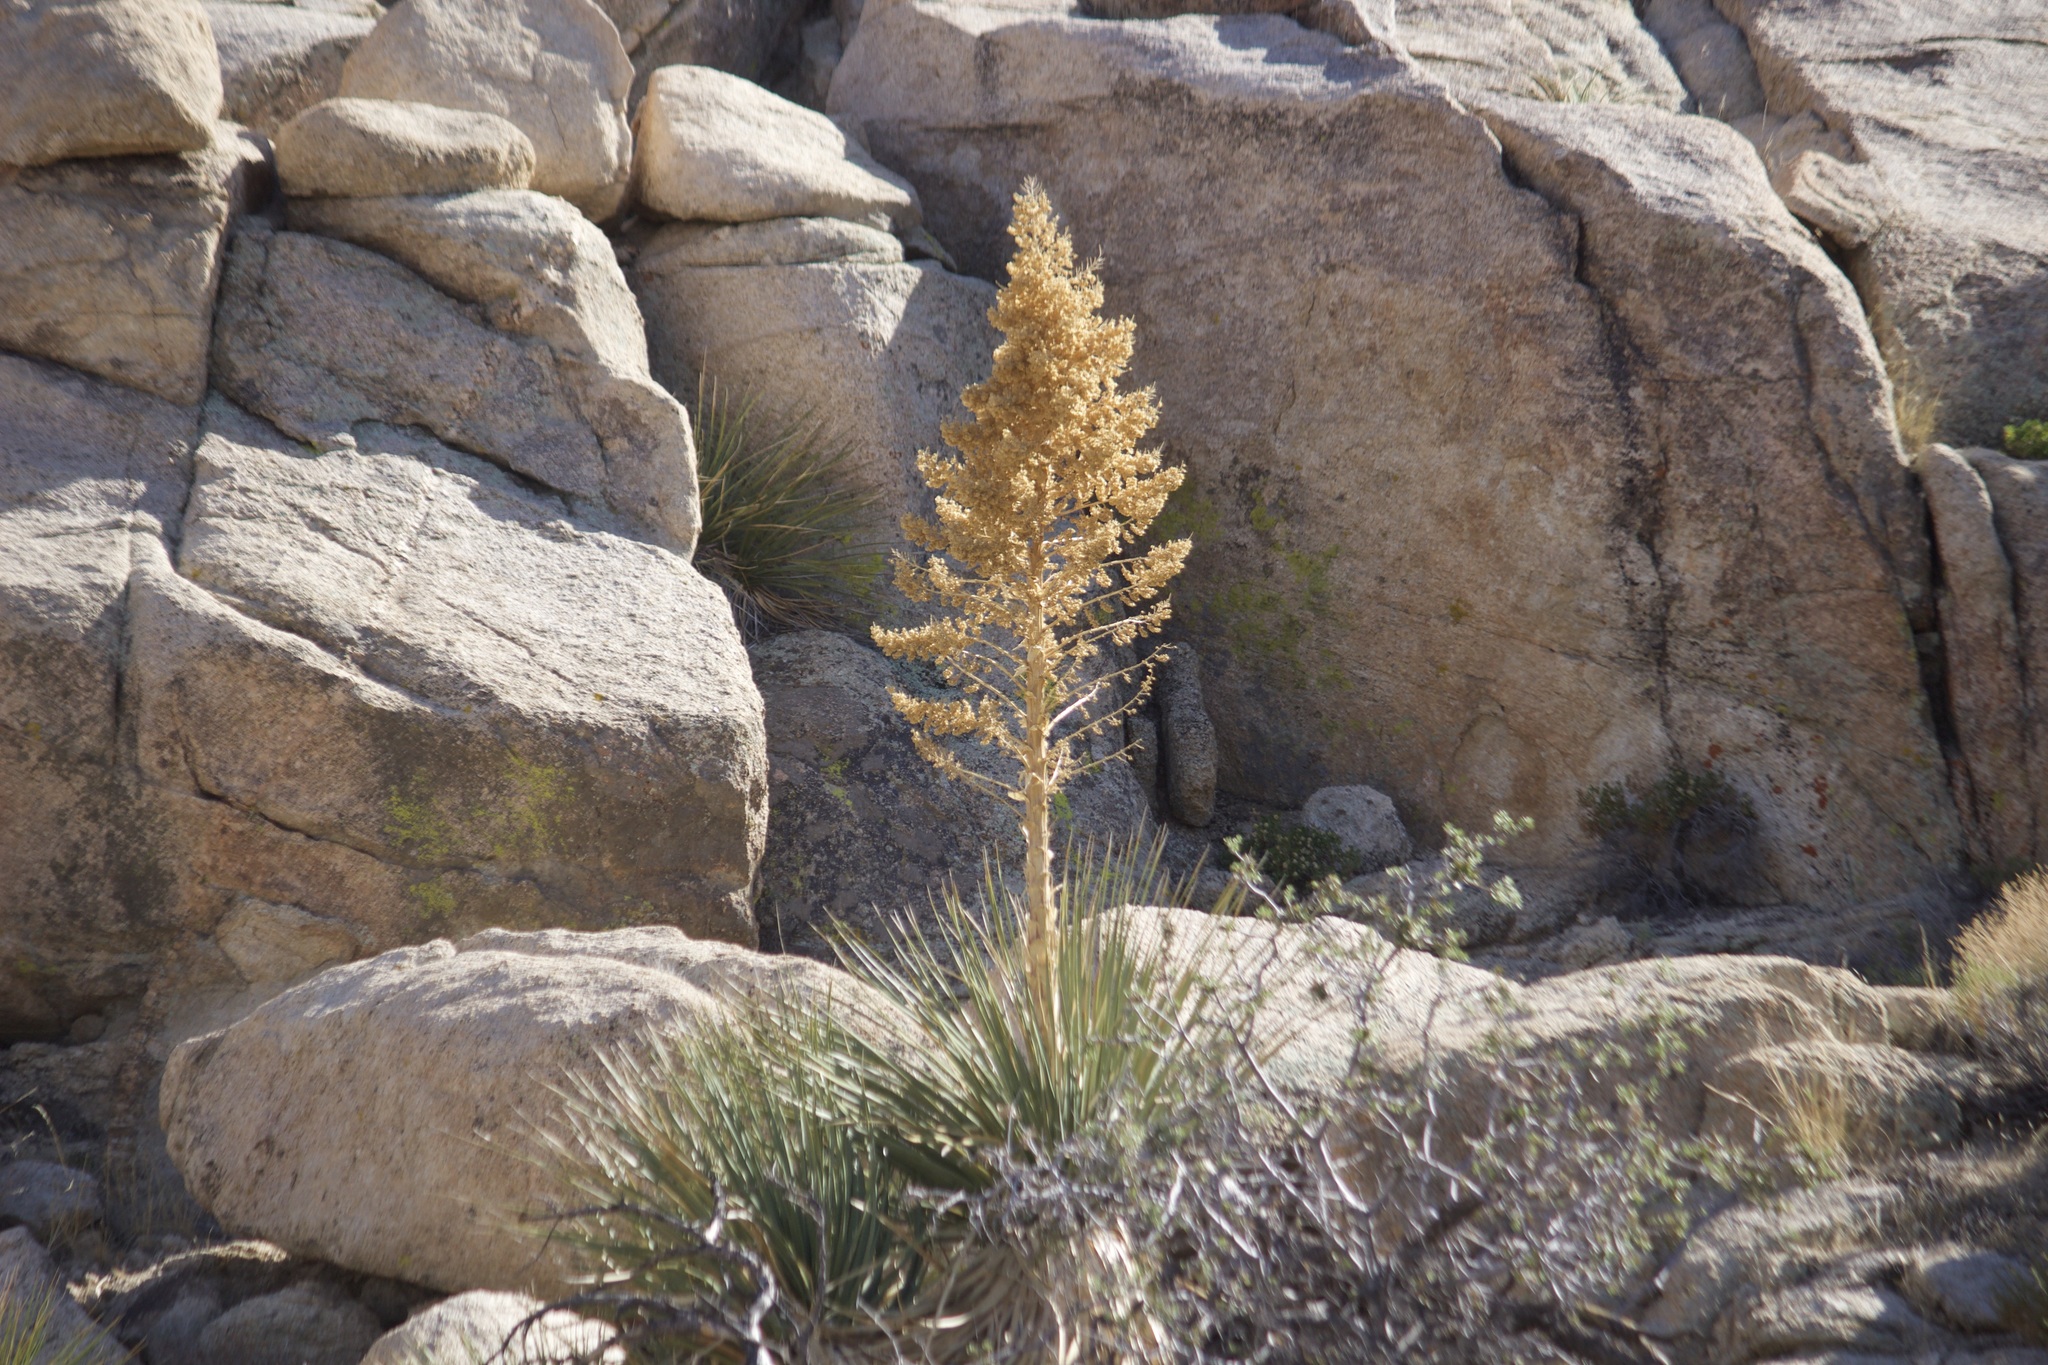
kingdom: Plantae
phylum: Tracheophyta
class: Liliopsida
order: Asparagales
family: Asparagaceae
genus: Nolina
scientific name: Nolina parryi
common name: Parry nolina
